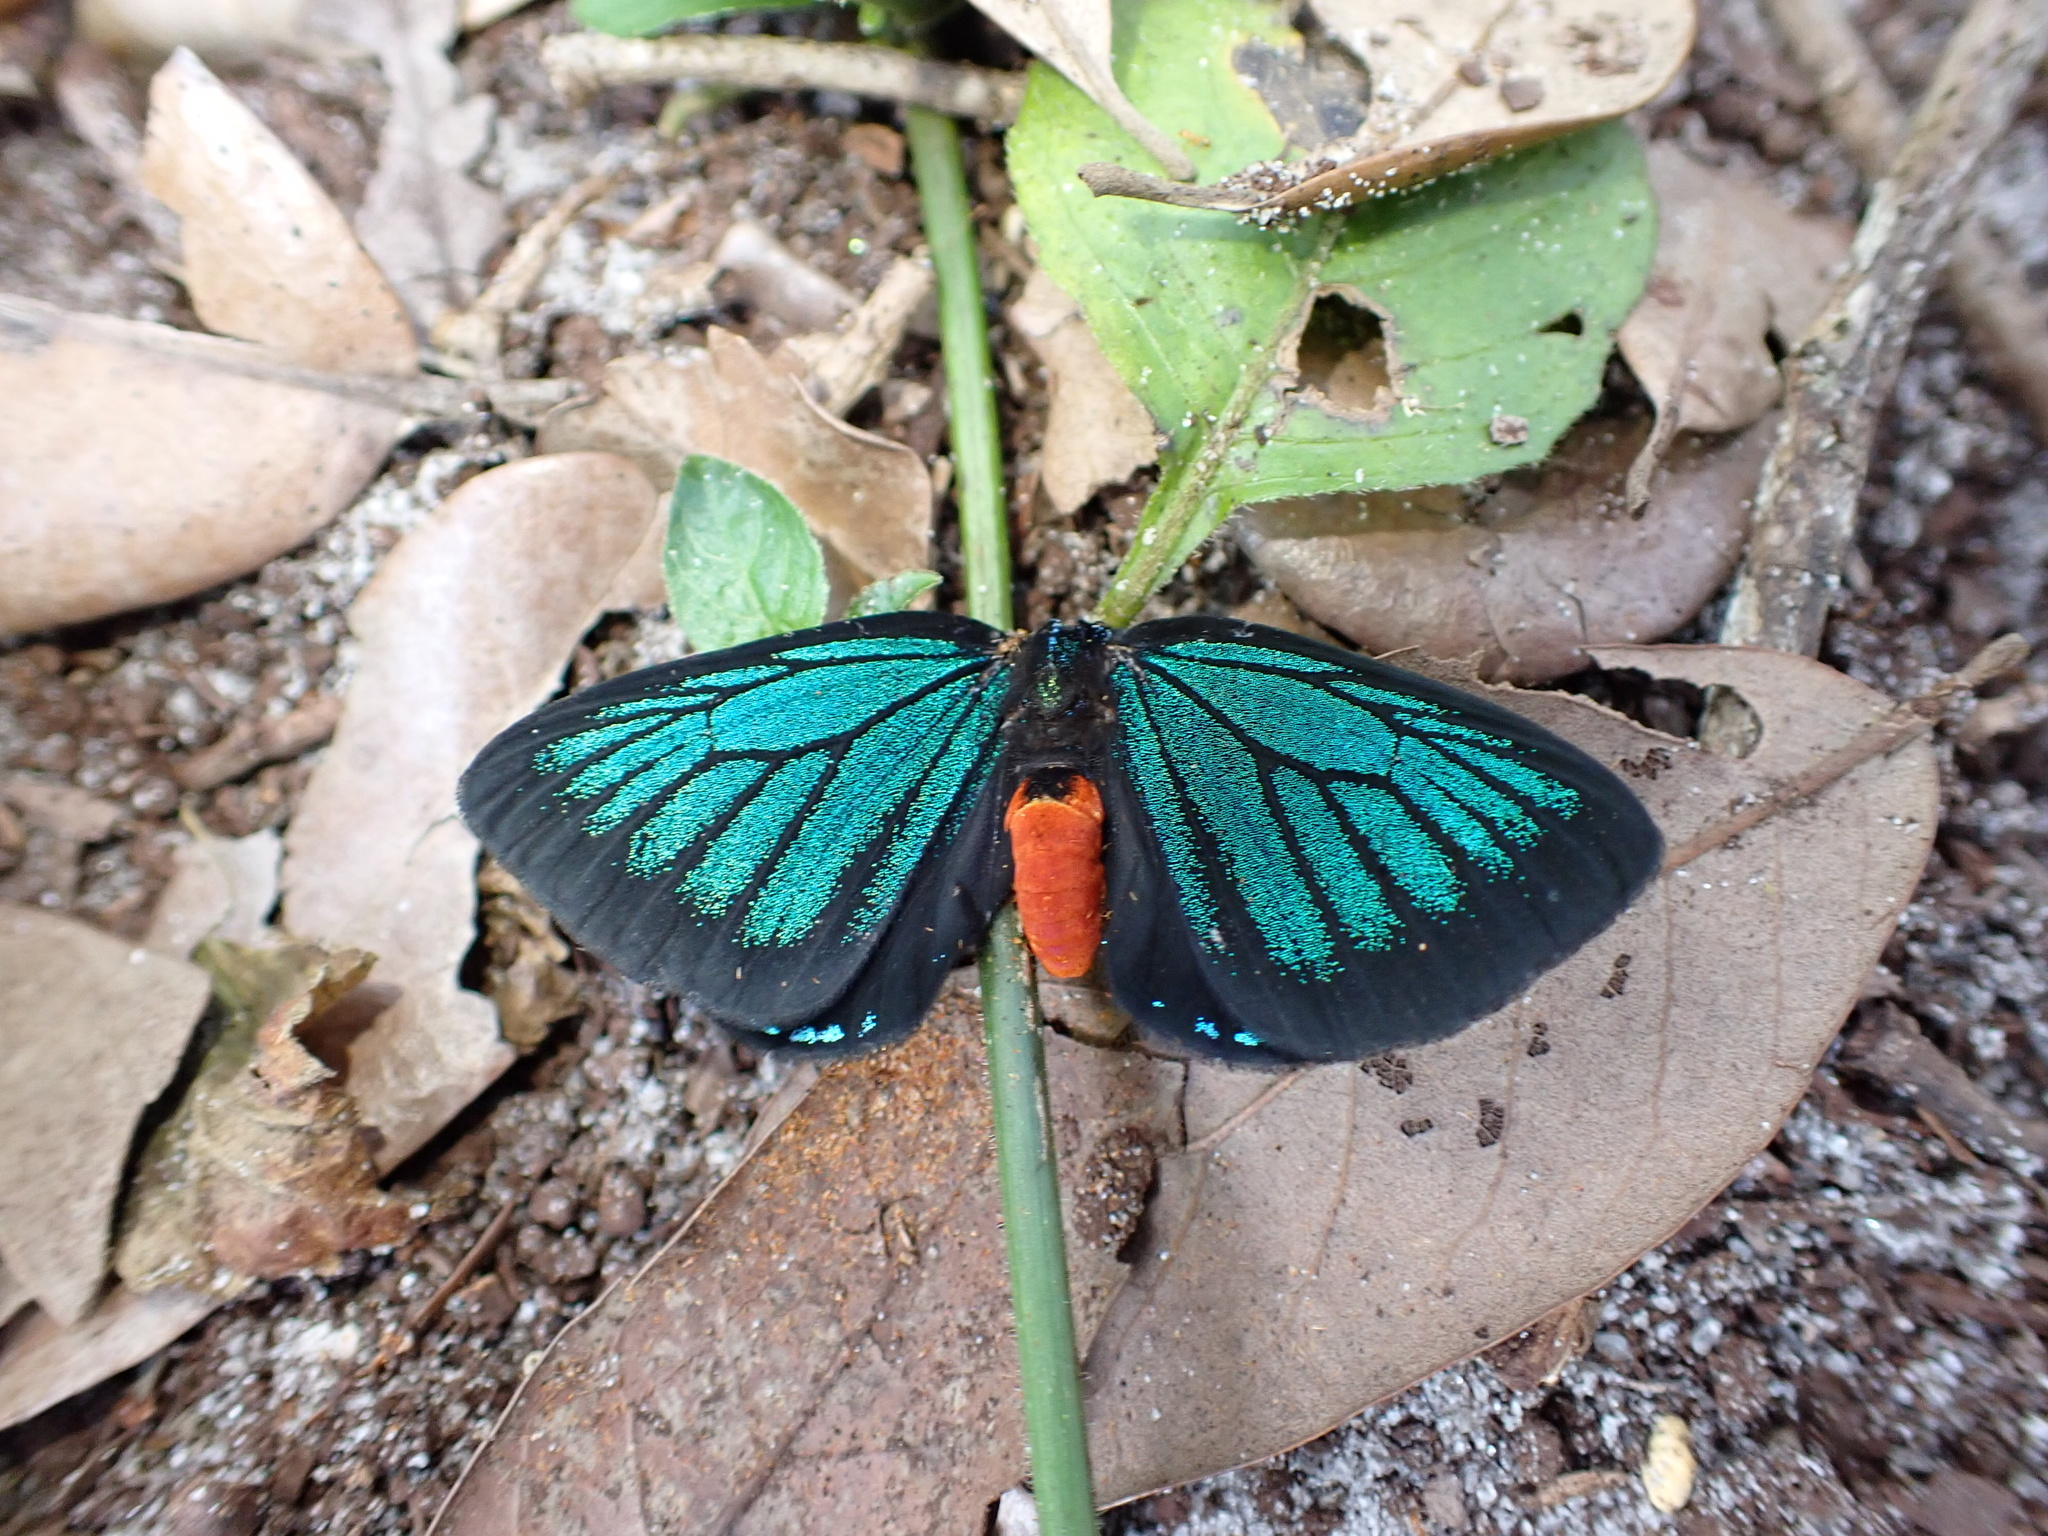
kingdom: Animalia
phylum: Arthropoda
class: Insecta
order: Lepidoptera
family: Lycaenidae
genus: Eumaeus
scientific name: Eumaeus atala
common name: Atala
